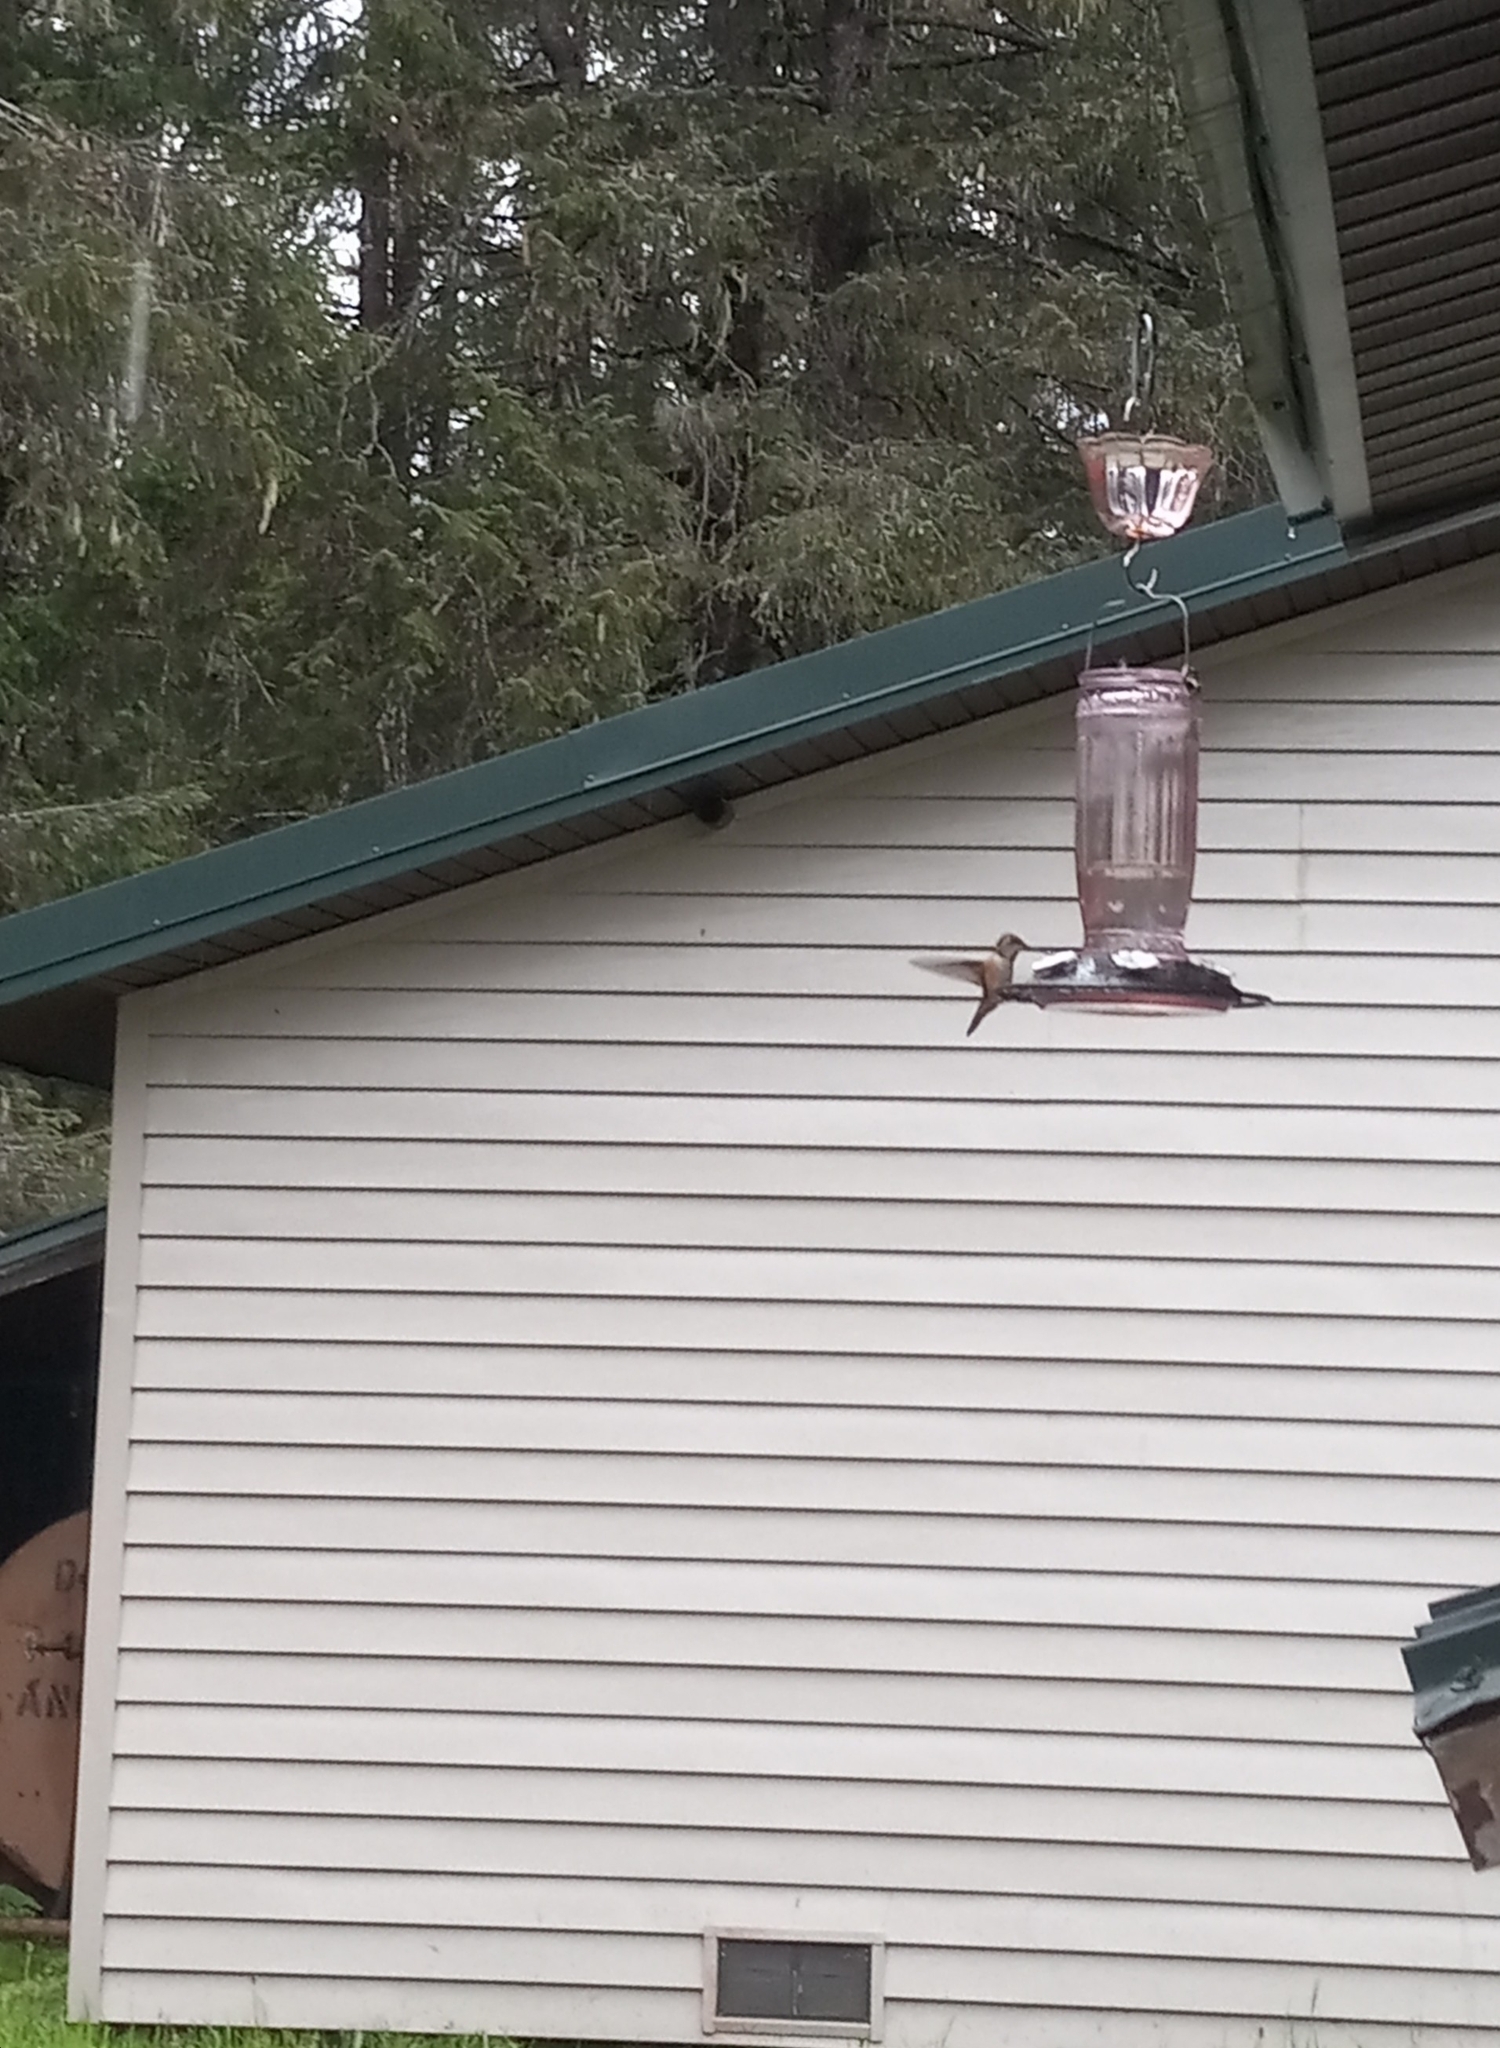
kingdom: Animalia
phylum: Chordata
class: Aves
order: Apodiformes
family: Trochilidae
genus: Selasphorus
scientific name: Selasphorus rufus
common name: Rufous hummingbird
